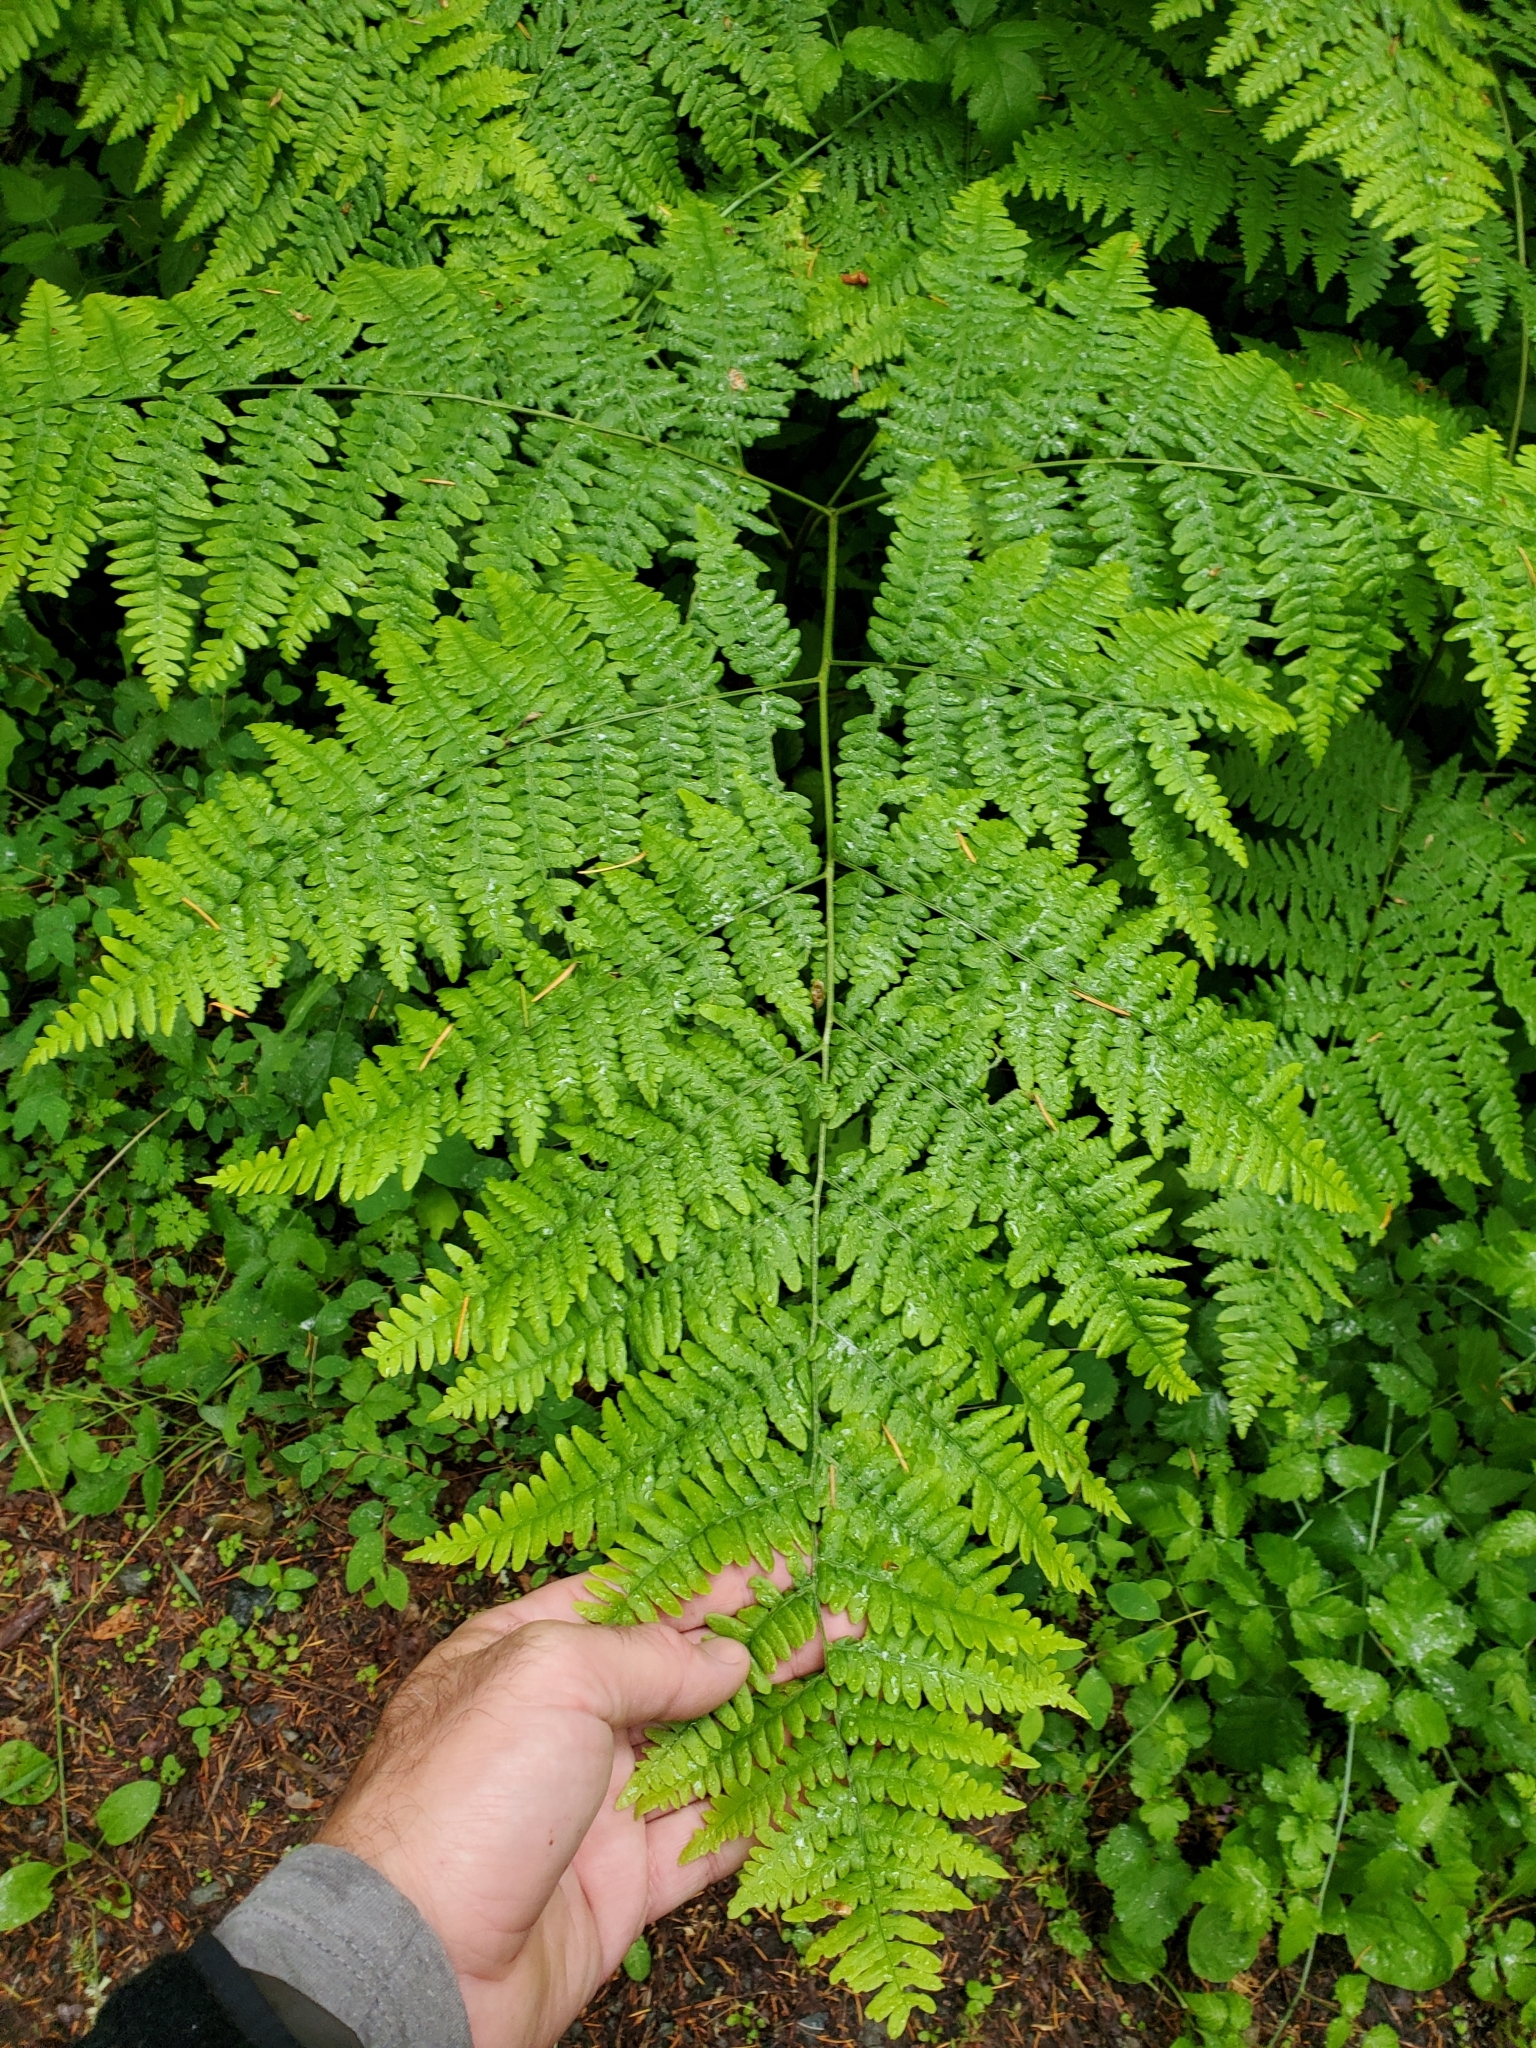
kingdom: Plantae
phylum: Tracheophyta
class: Polypodiopsida
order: Polypodiales
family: Dennstaedtiaceae
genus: Pteridium
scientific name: Pteridium aquilinum
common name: Bracken
